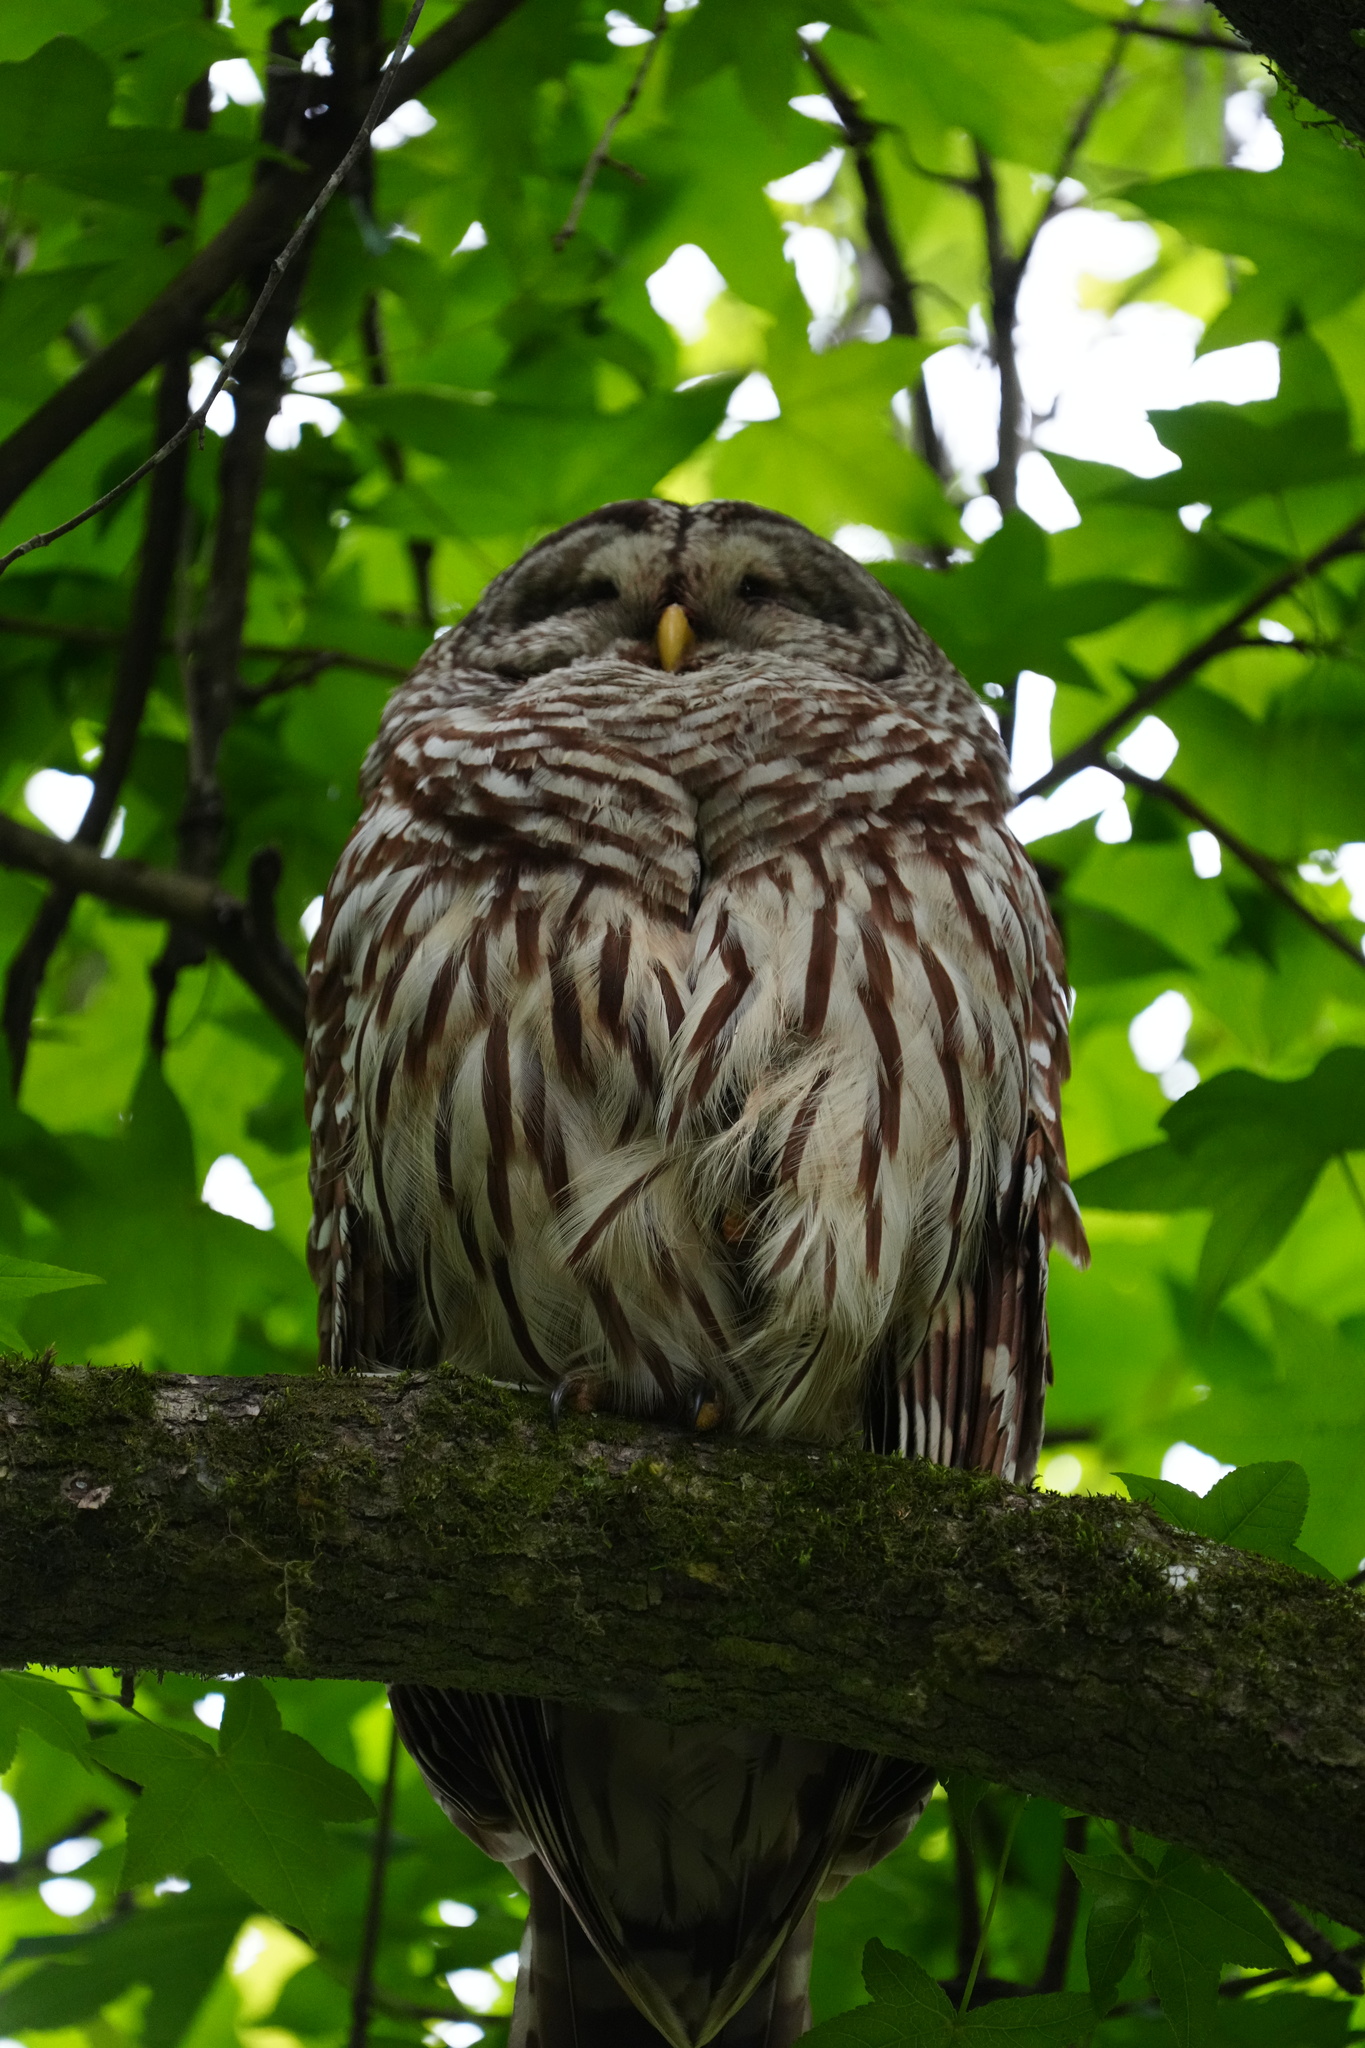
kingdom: Animalia
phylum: Chordata
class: Aves
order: Strigiformes
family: Strigidae
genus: Strix
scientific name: Strix varia
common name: Barred owl
